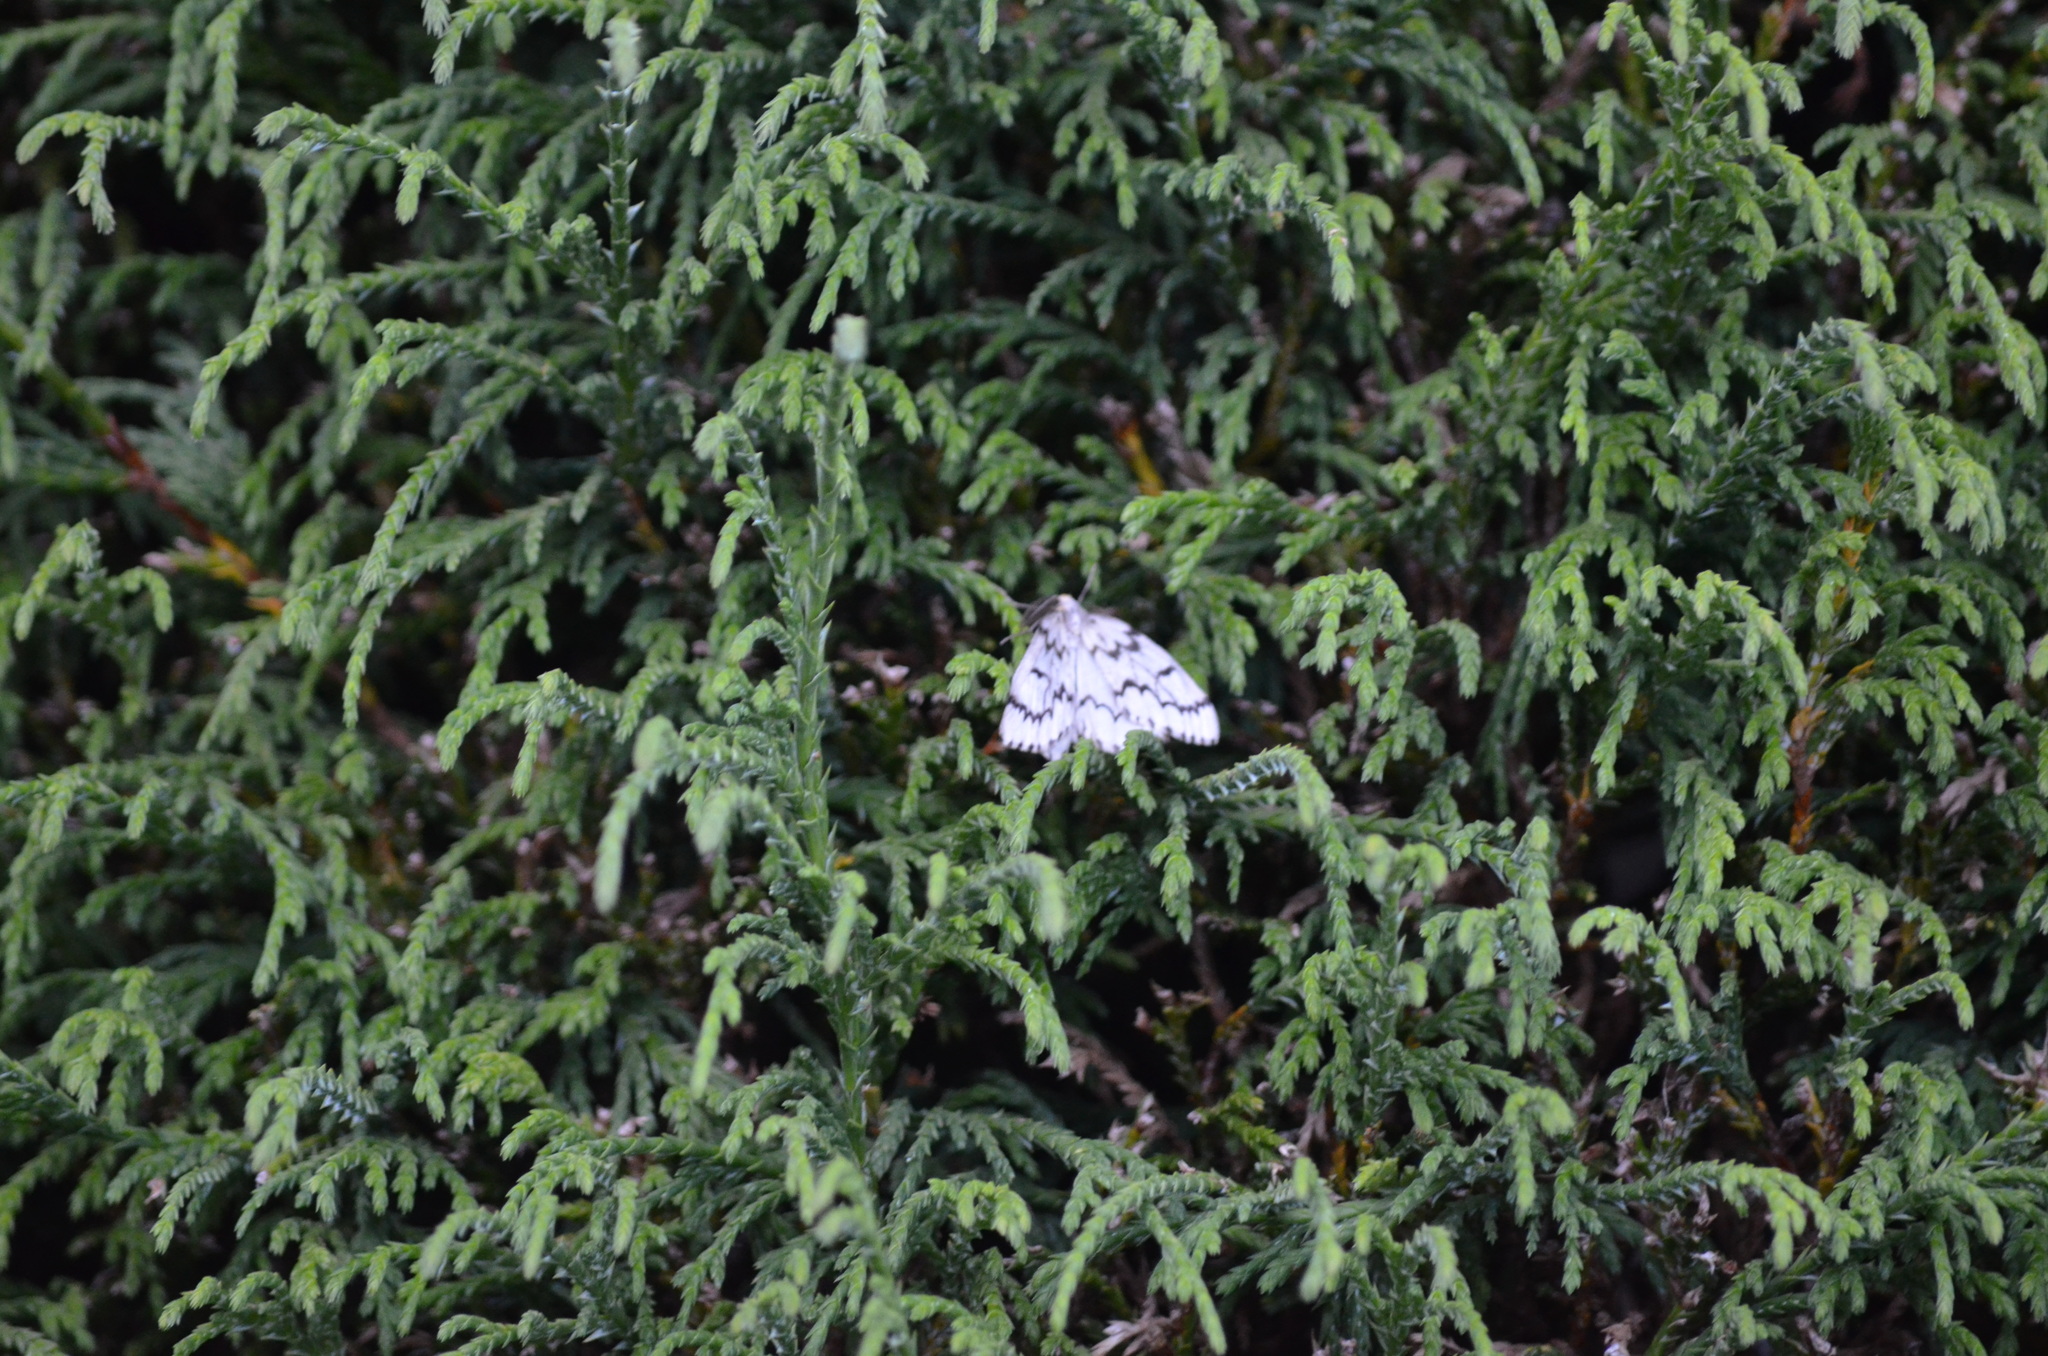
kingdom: Animalia
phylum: Arthropoda
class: Insecta
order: Lepidoptera
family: Geometridae
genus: Nepytia
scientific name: Nepytia phantasmaria
